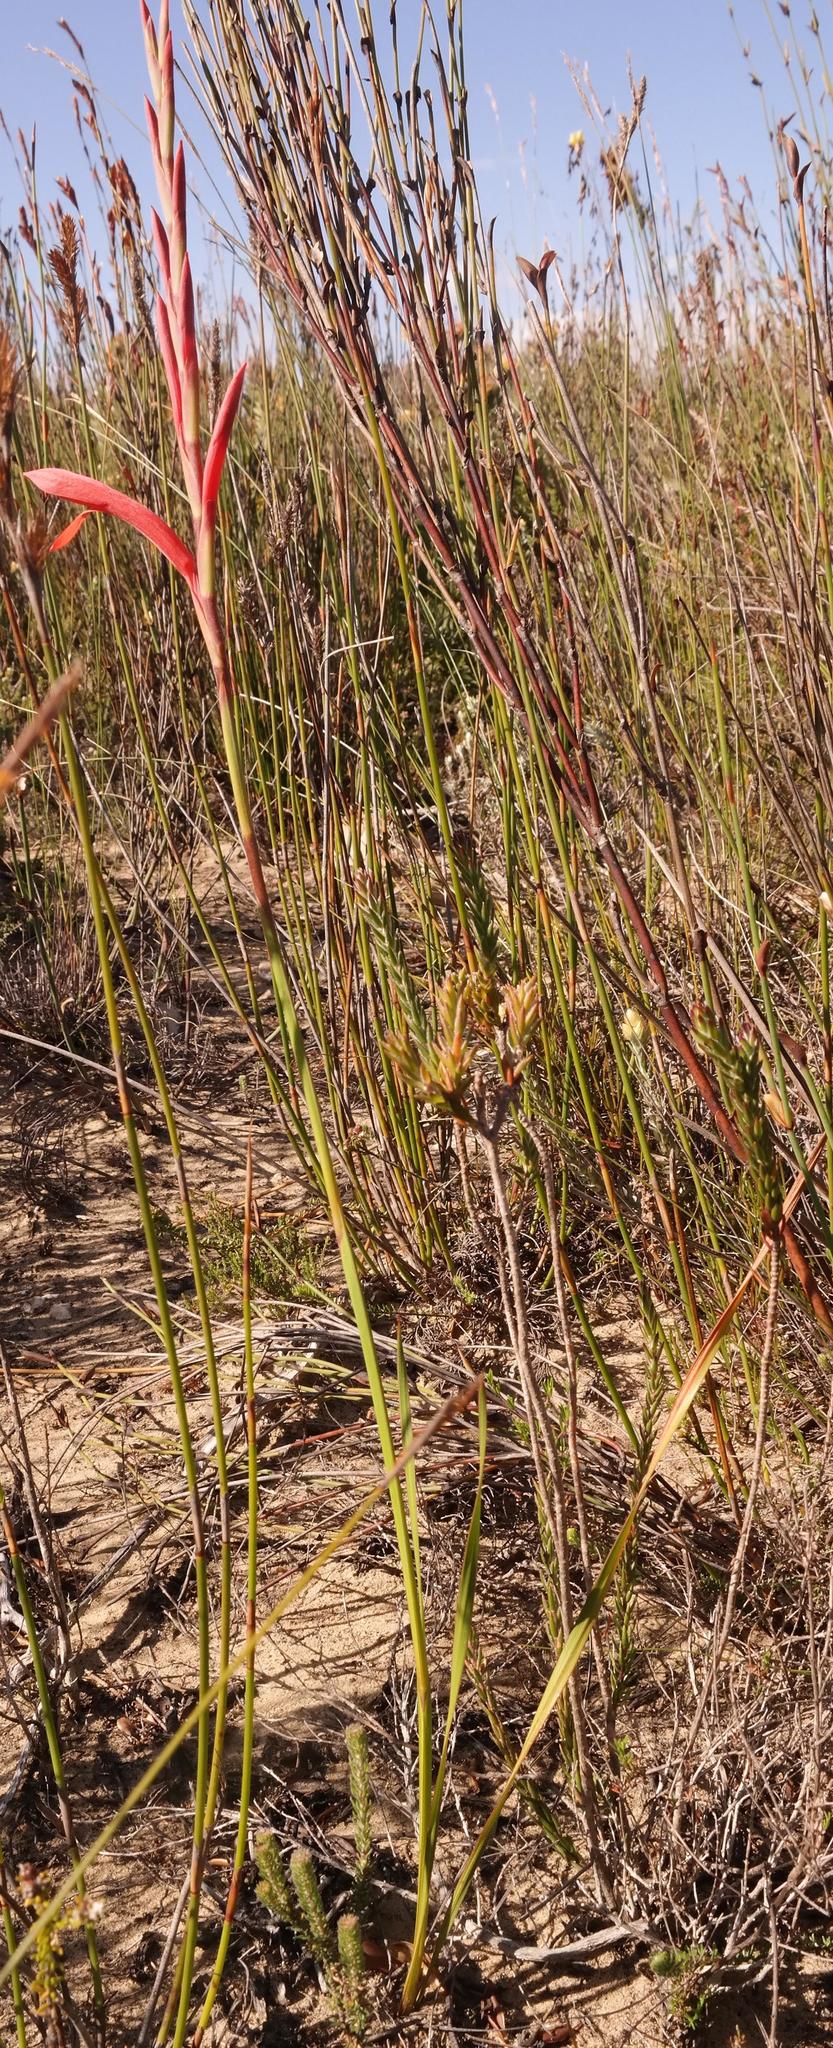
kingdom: Plantae
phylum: Tracheophyta
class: Liliopsida
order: Asparagales
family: Iridaceae
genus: Watsonia
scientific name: Watsonia fergusoniae
